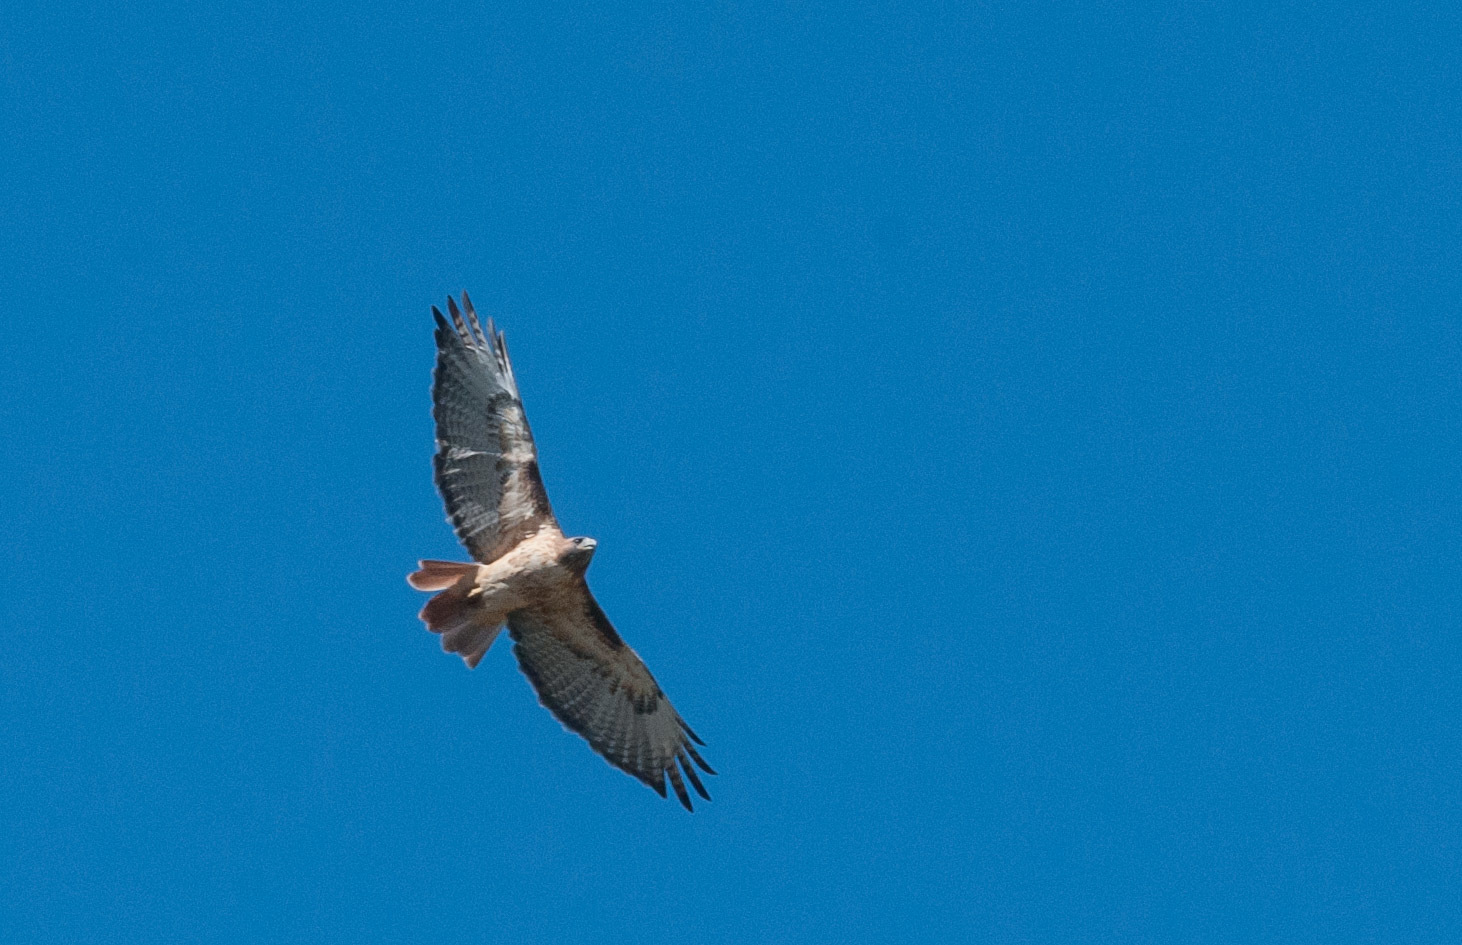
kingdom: Animalia
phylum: Chordata
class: Aves
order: Accipitriformes
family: Accipitridae
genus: Buteo
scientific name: Buteo jamaicensis
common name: Red-tailed hawk
